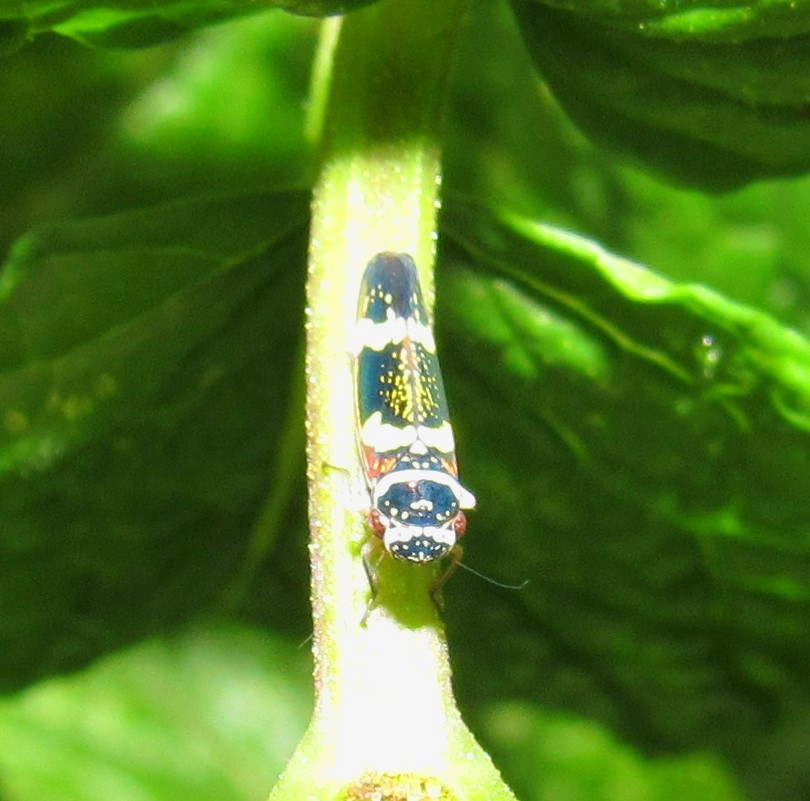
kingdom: Animalia
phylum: Arthropoda
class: Insecta
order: Hemiptera
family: Cicadellidae
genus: Macugonalia
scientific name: Macugonalia leucomelas
